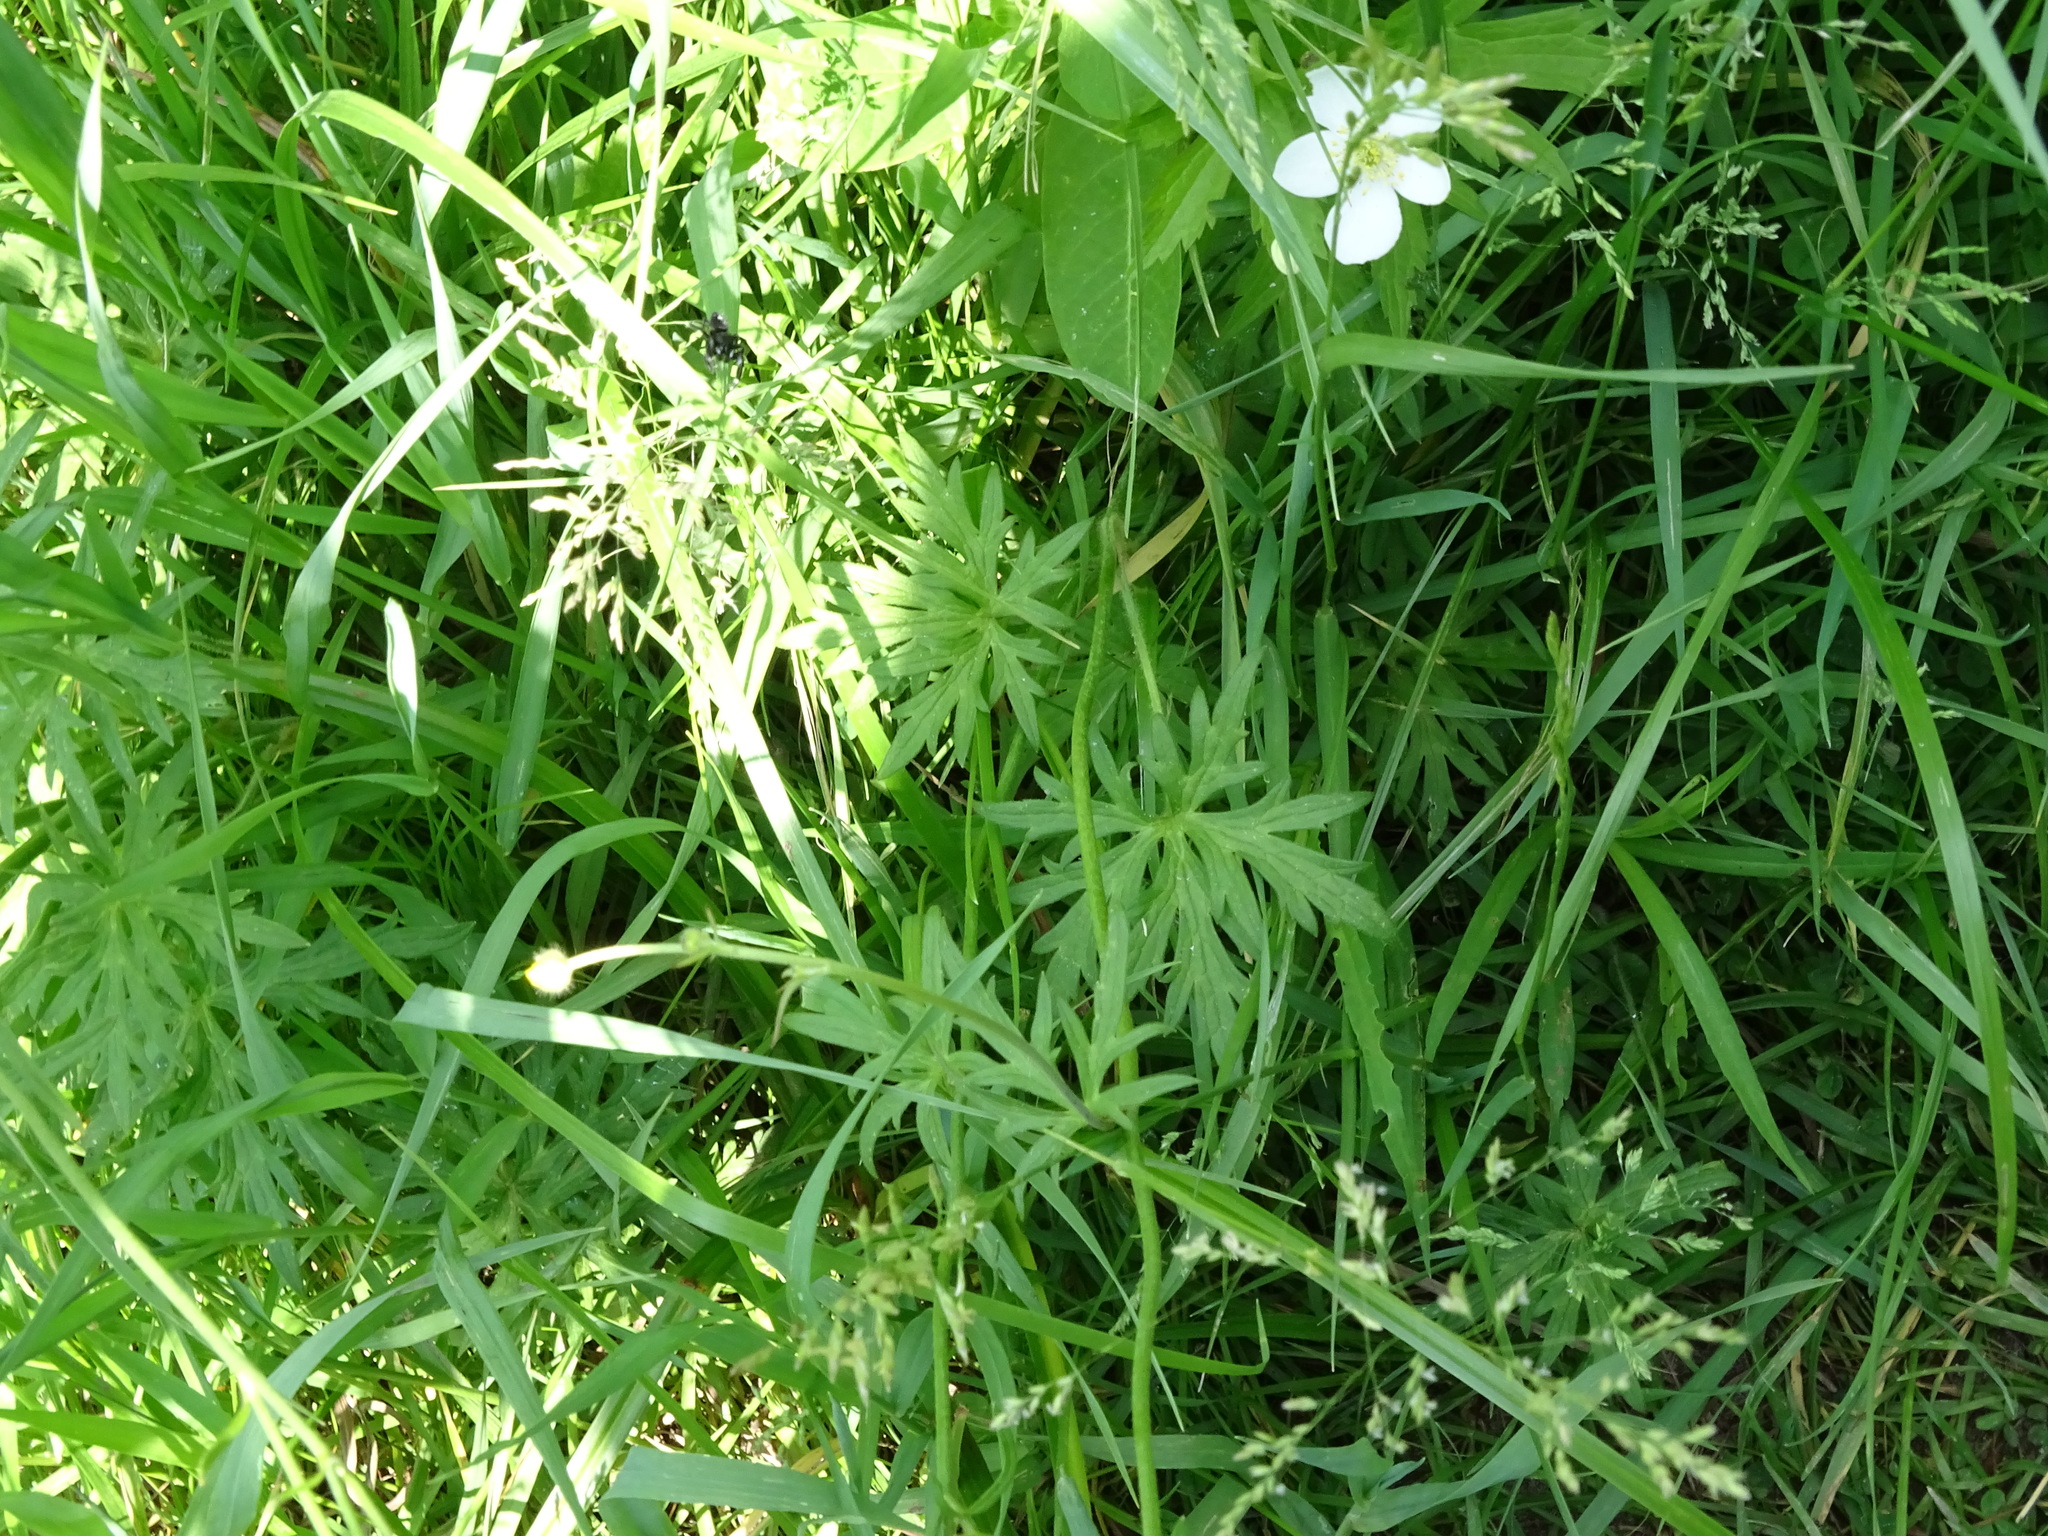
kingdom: Plantae
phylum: Tracheophyta
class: Magnoliopsida
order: Ranunculales
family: Ranunculaceae
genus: Ranunculus
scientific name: Ranunculus acris
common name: Meadow buttercup
